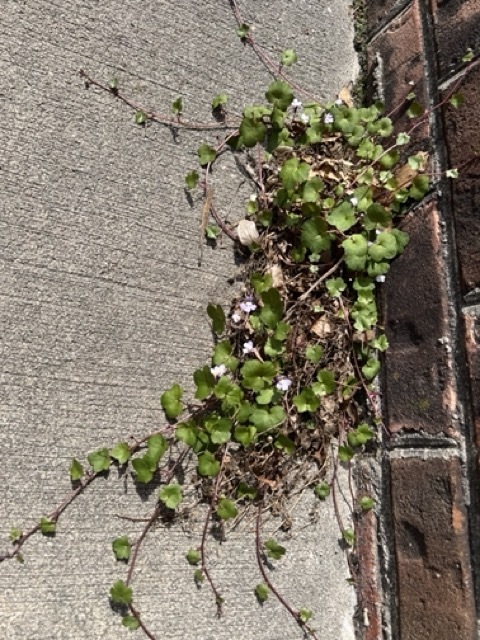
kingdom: Plantae
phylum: Tracheophyta
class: Magnoliopsida
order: Lamiales
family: Plantaginaceae
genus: Cymbalaria
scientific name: Cymbalaria muralis
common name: Ivy-leaved toadflax
